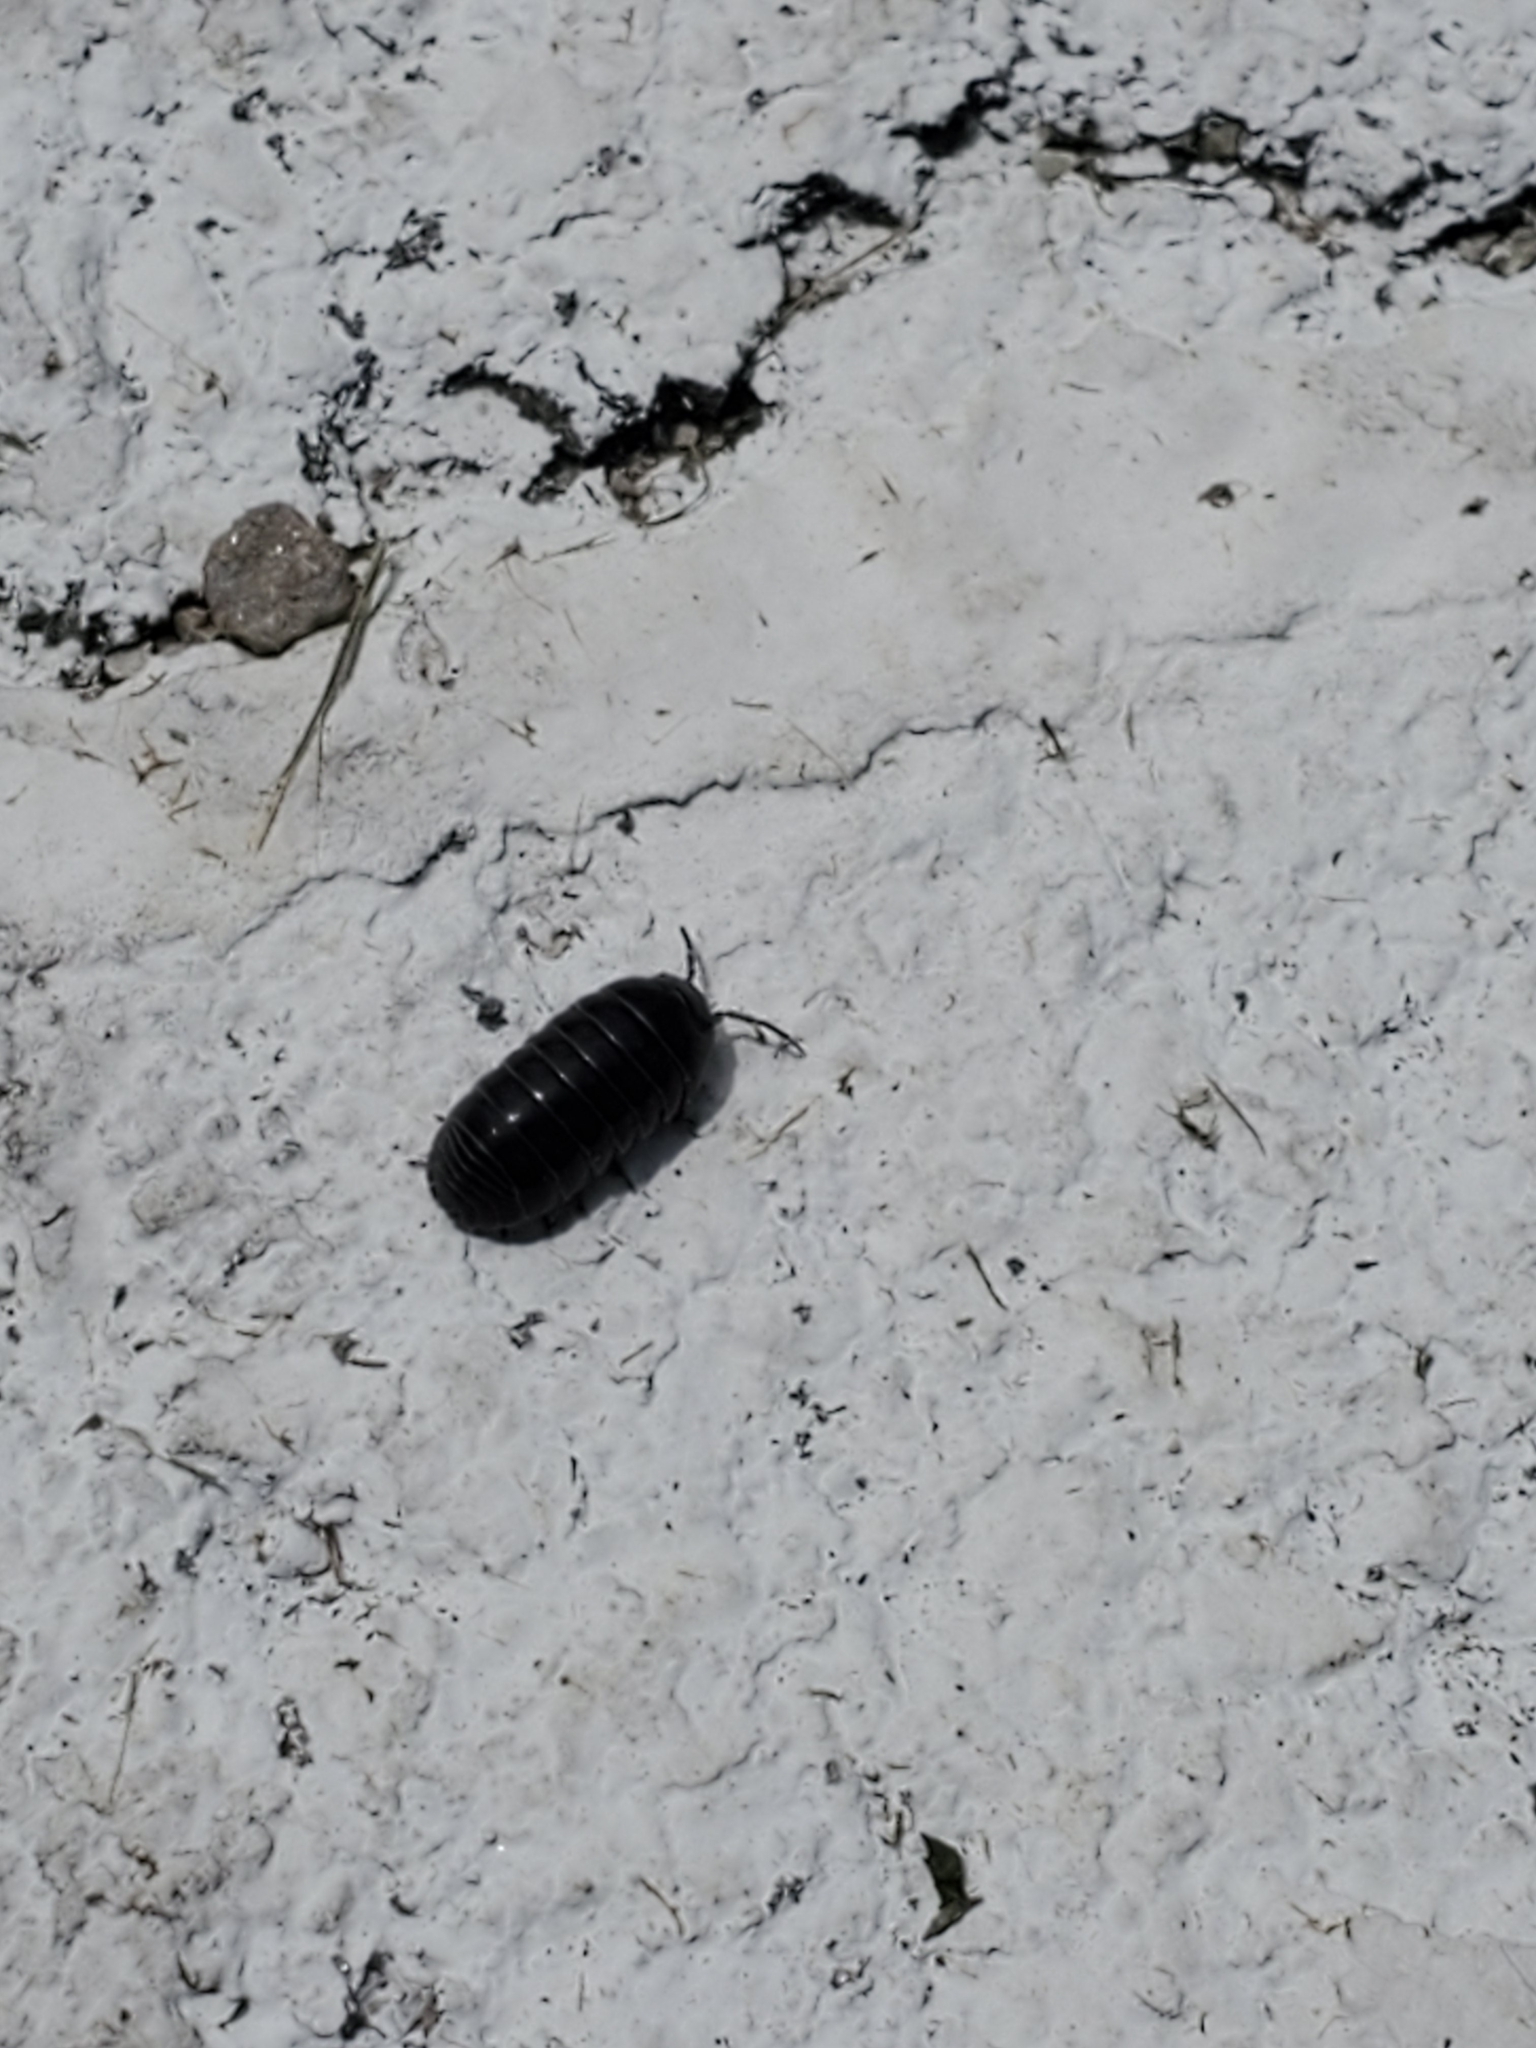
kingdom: Animalia
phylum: Arthropoda
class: Malacostraca
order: Isopoda
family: Armadillidiidae
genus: Armadillidium
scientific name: Armadillidium vulgare
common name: Common pill woodlouse
